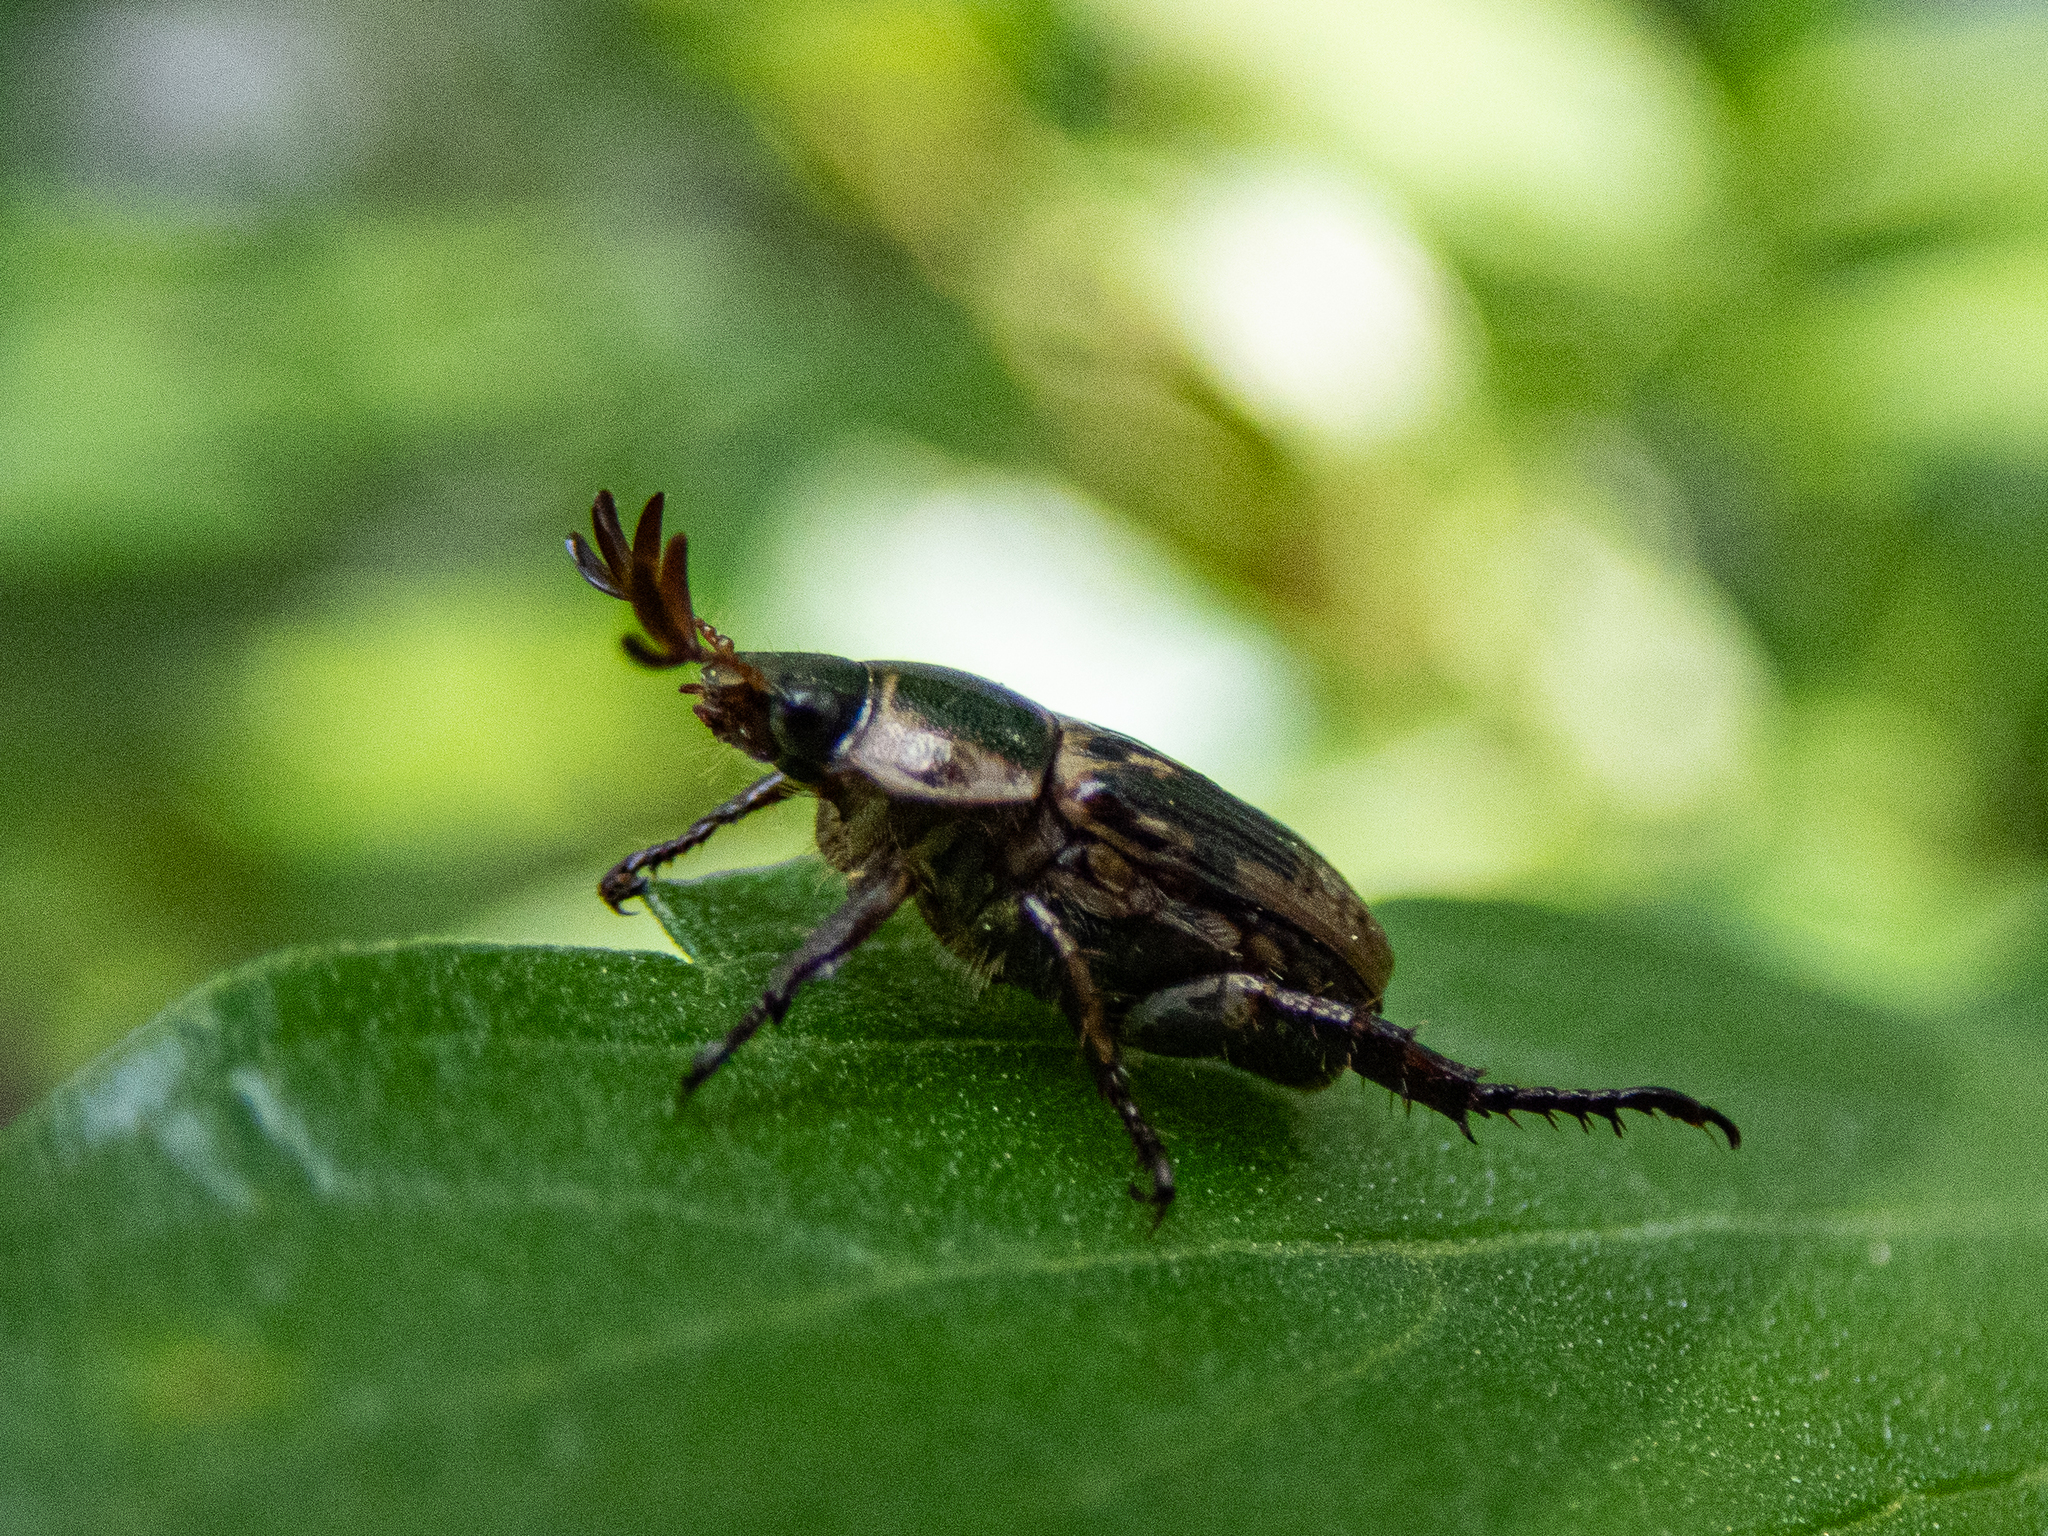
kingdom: Animalia
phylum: Arthropoda
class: Insecta
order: Coleoptera
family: Scarabaeidae
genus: Exomala
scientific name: Exomala orientalis
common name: Oriental beetle
